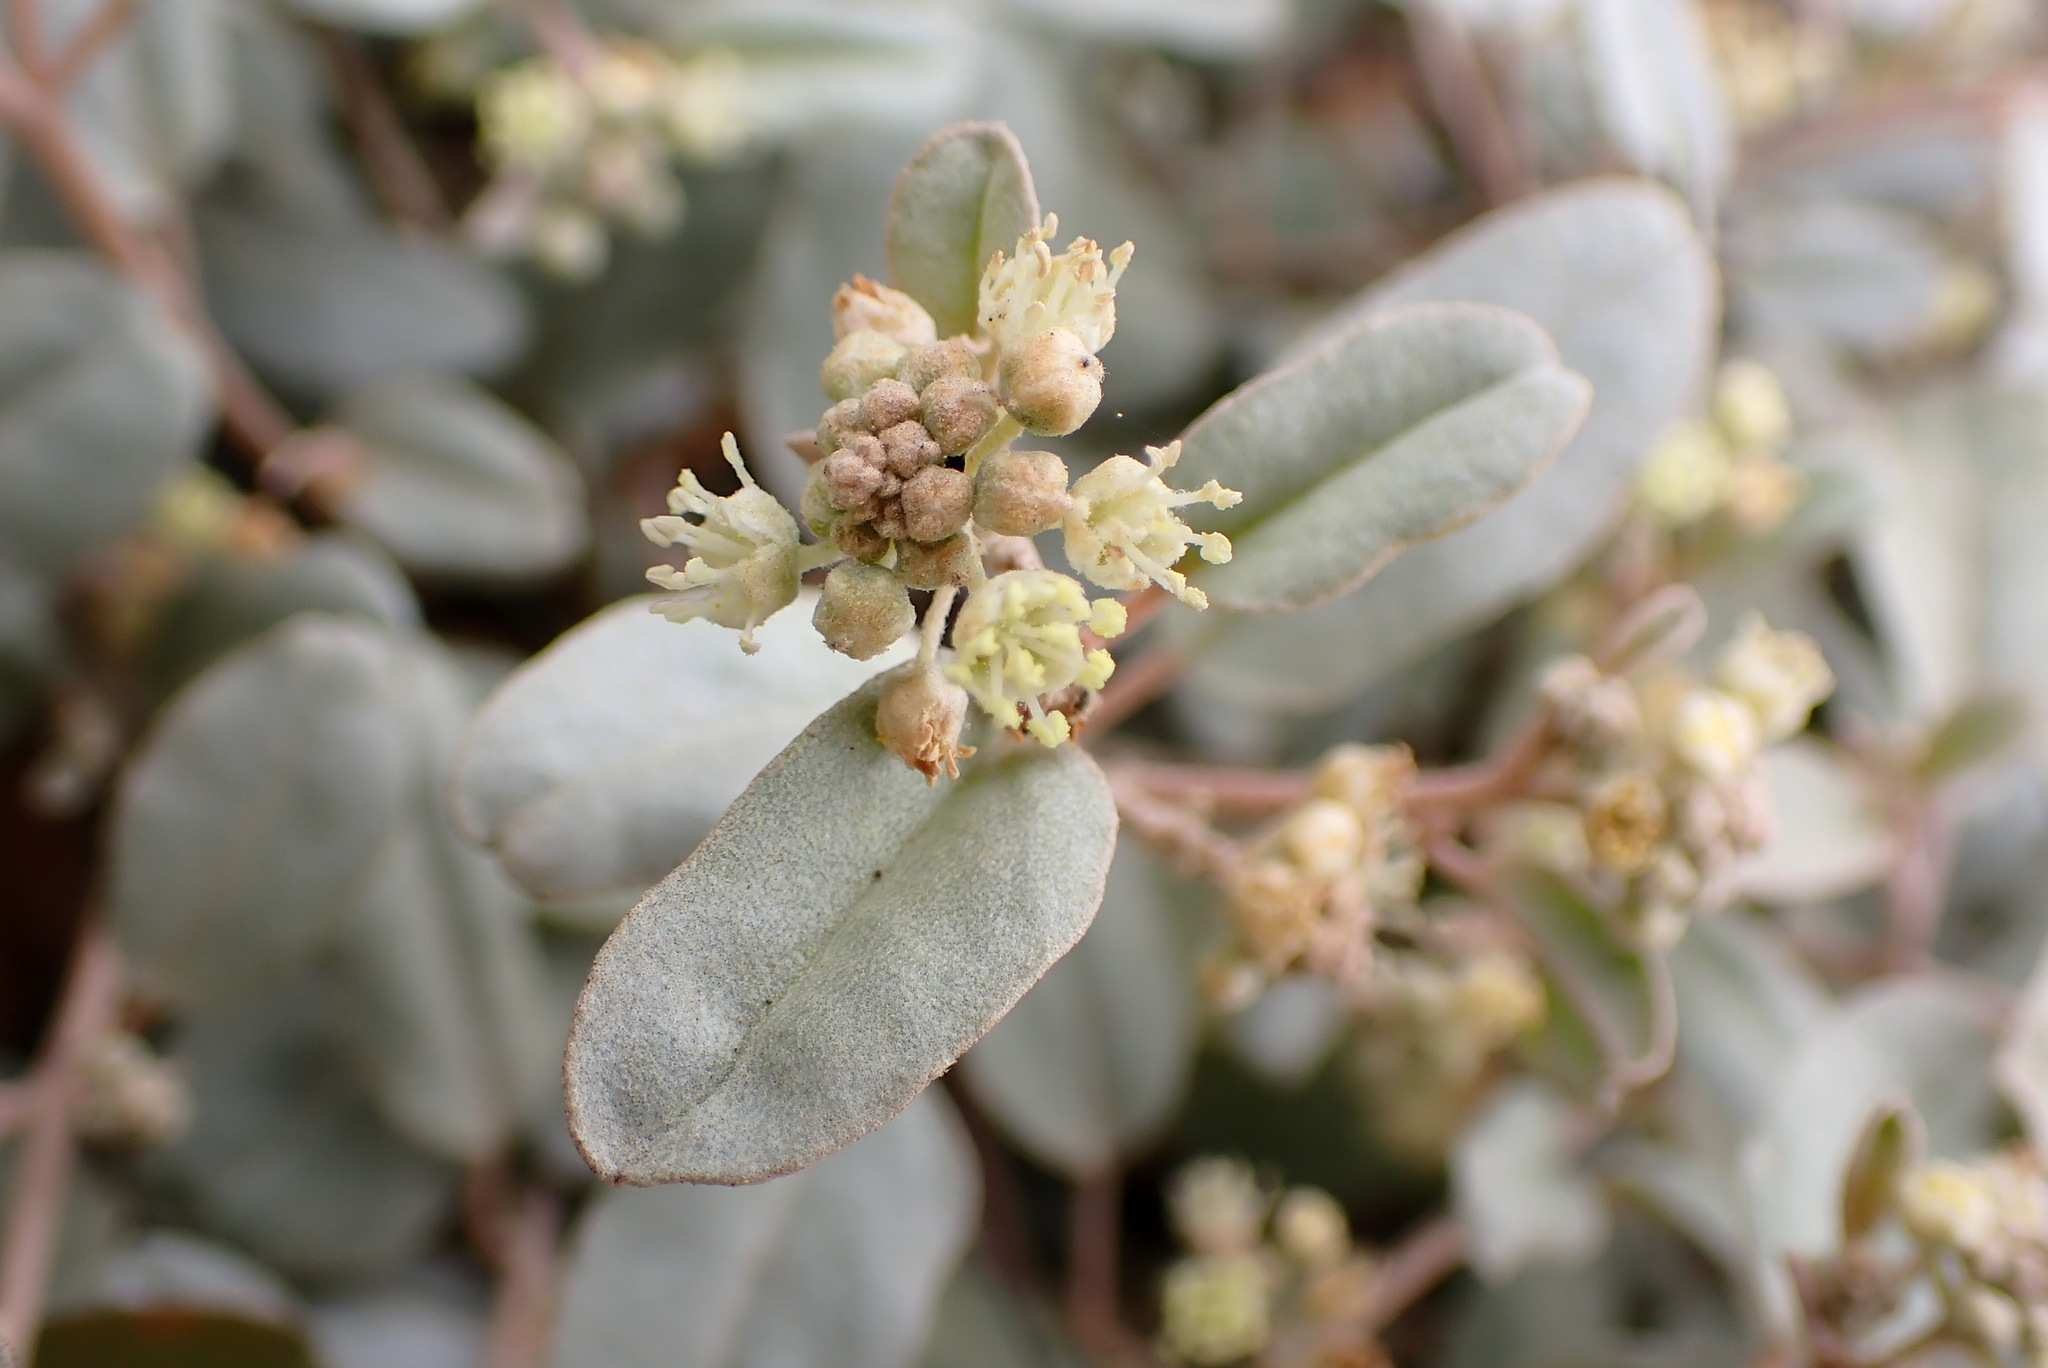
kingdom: Plantae
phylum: Tracheophyta
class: Magnoliopsida
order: Malpighiales
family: Euphorbiaceae
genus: Croton
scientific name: Croton californicus
